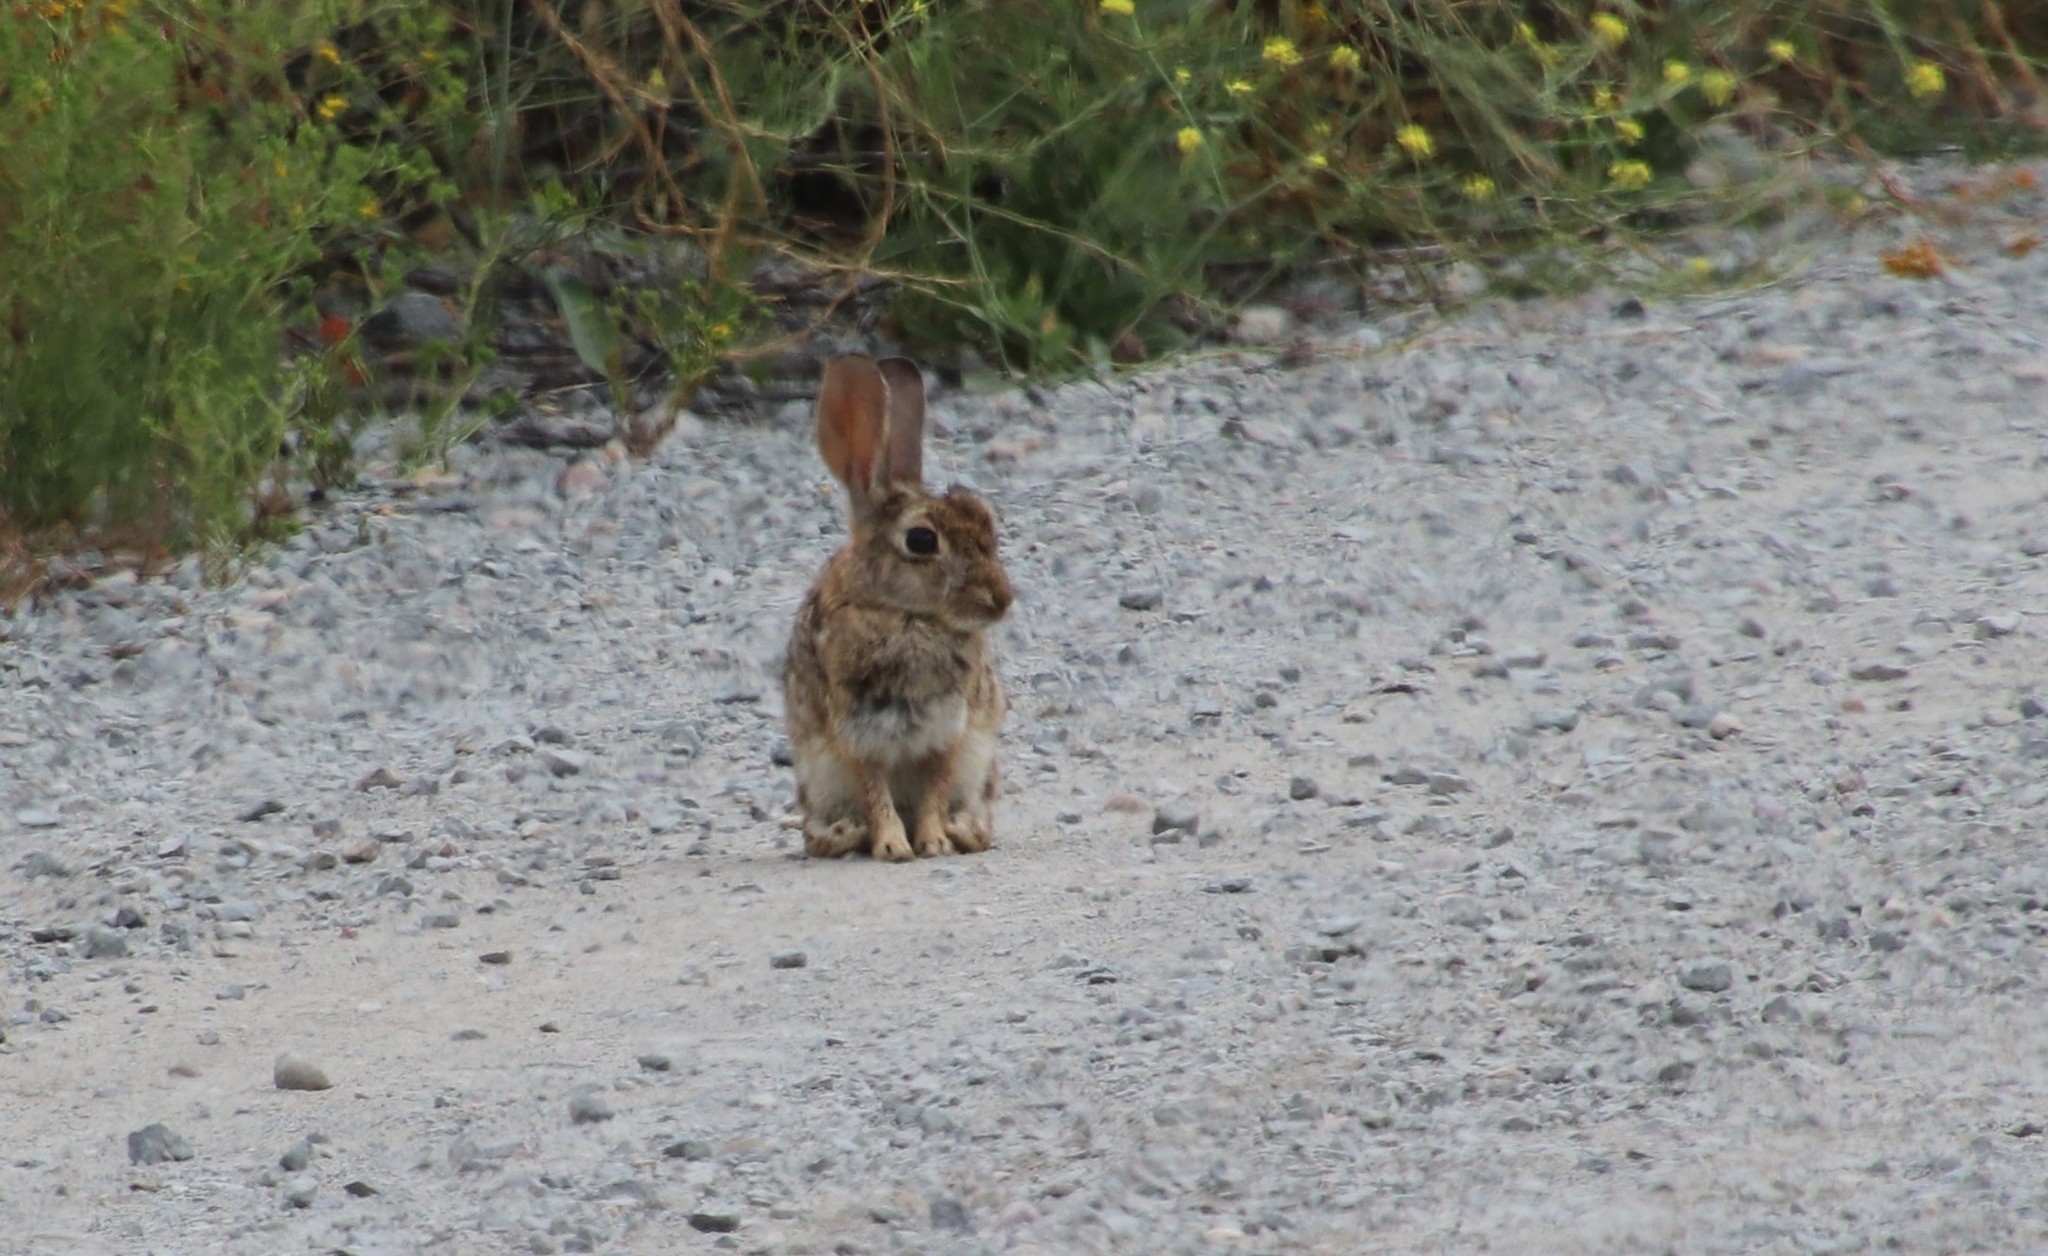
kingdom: Animalia
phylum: Chordata
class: Mammalia
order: Lagomorpha
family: Leporidae
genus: Sylvilagus
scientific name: Sylvilagus audubonii
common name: Desert cottontail
